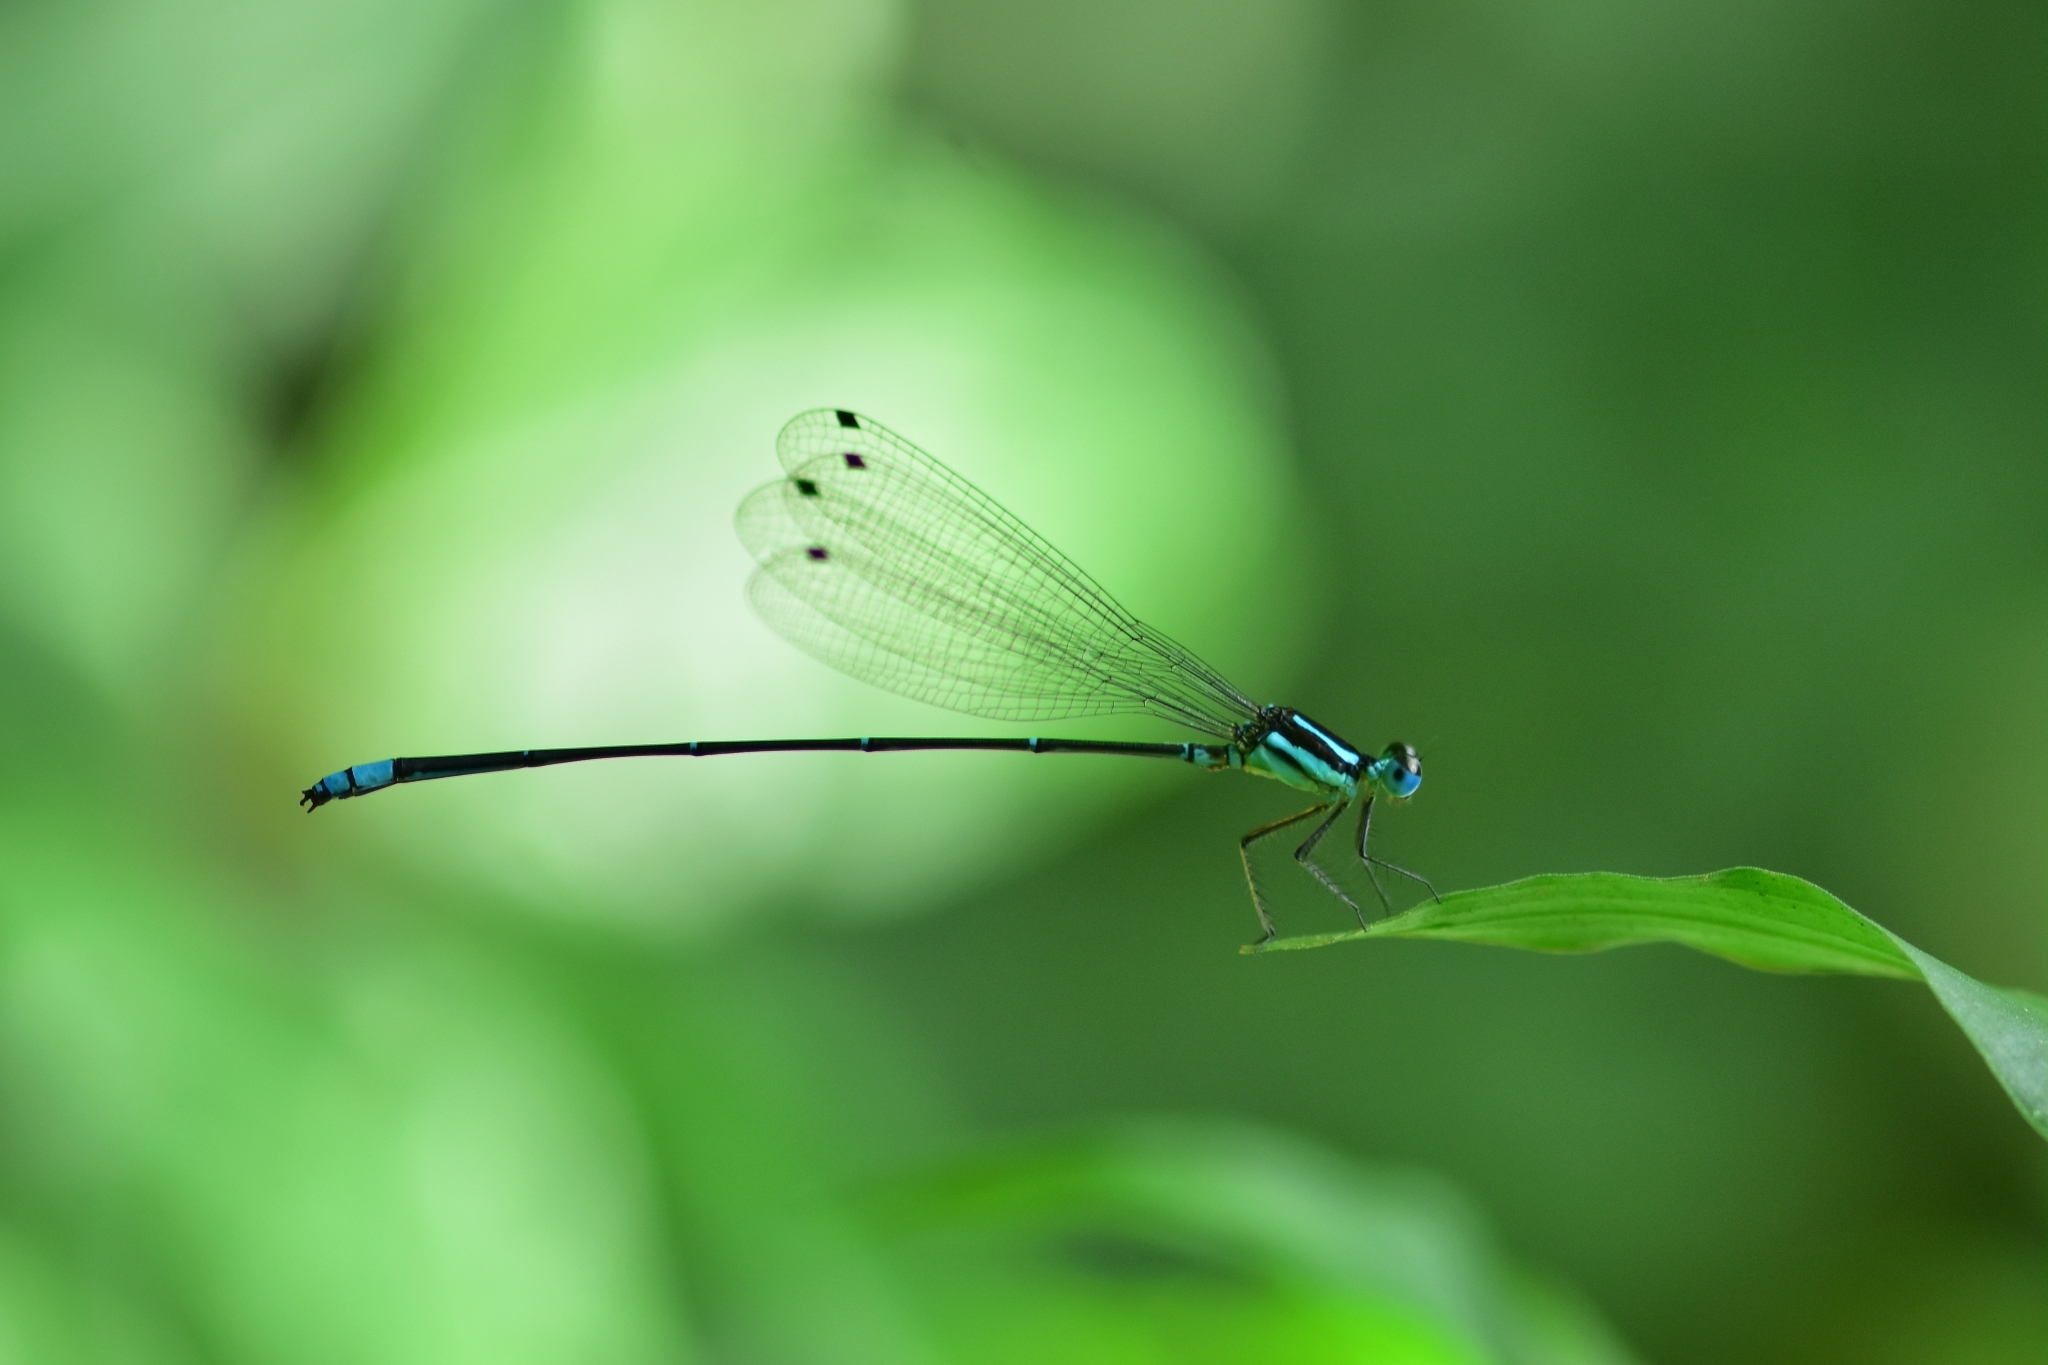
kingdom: Animalia
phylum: Arthropoda
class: Insecta
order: Odonata
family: Platycnemididae
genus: Caconeura
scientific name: Caconeura risi
